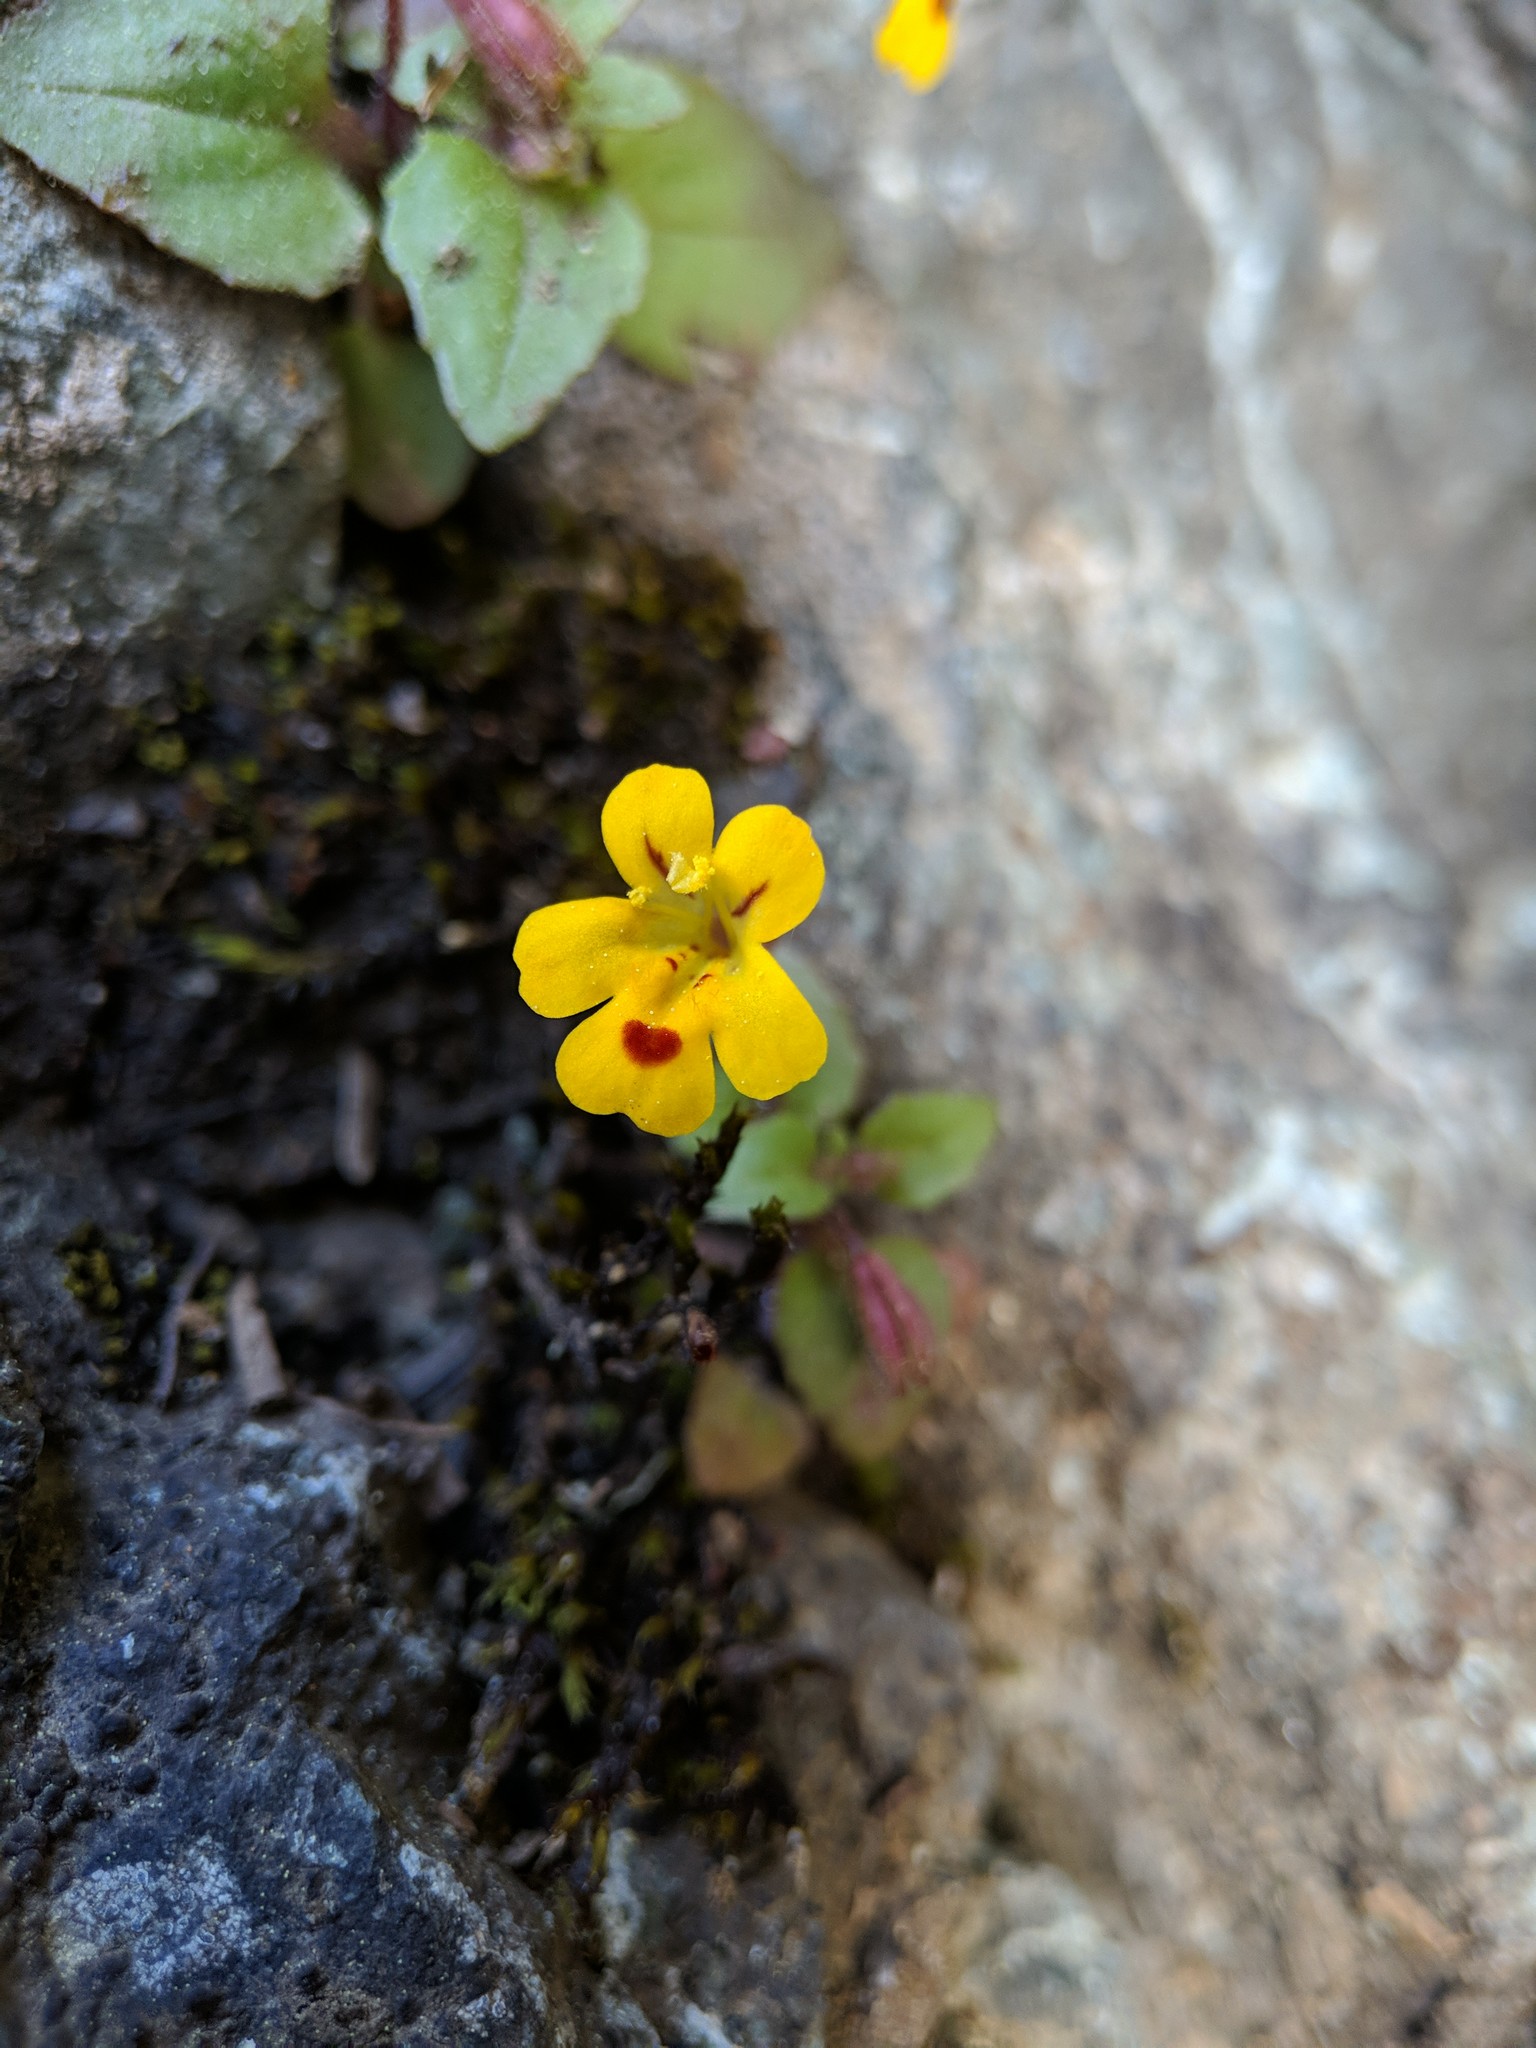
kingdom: Plantae
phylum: Tracheophyta
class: Magnoliopsida
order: Lamiales
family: Phrymaceae
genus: Erythranthe
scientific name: Erythranthe alsinoides
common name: Chickweed monkeyflower
